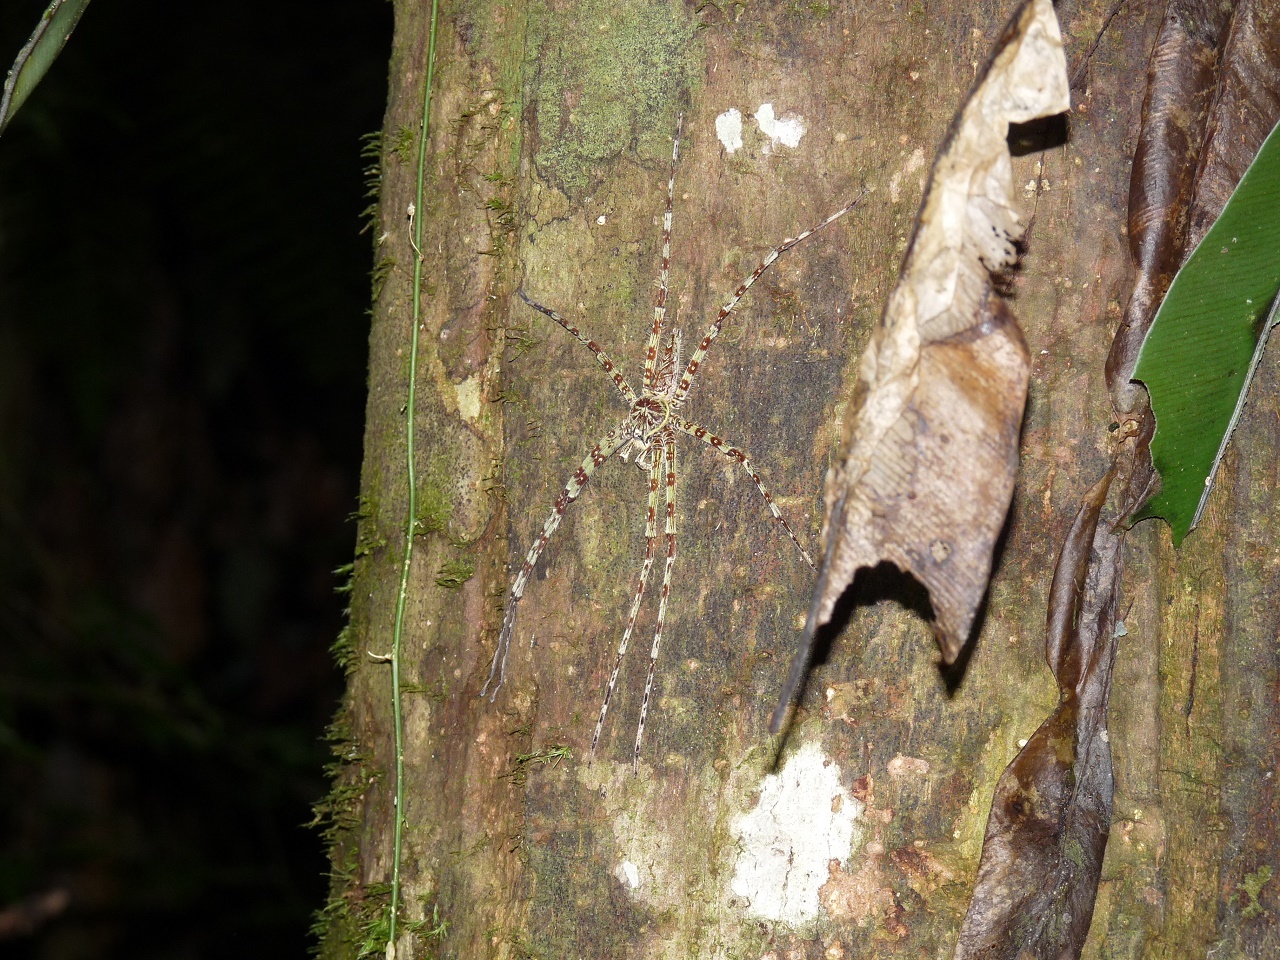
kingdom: Animalia
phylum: Arthropoda
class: Arachnida
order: Araneae
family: Sparassidae
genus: Heteropoda
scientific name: Heteropoda boiei
